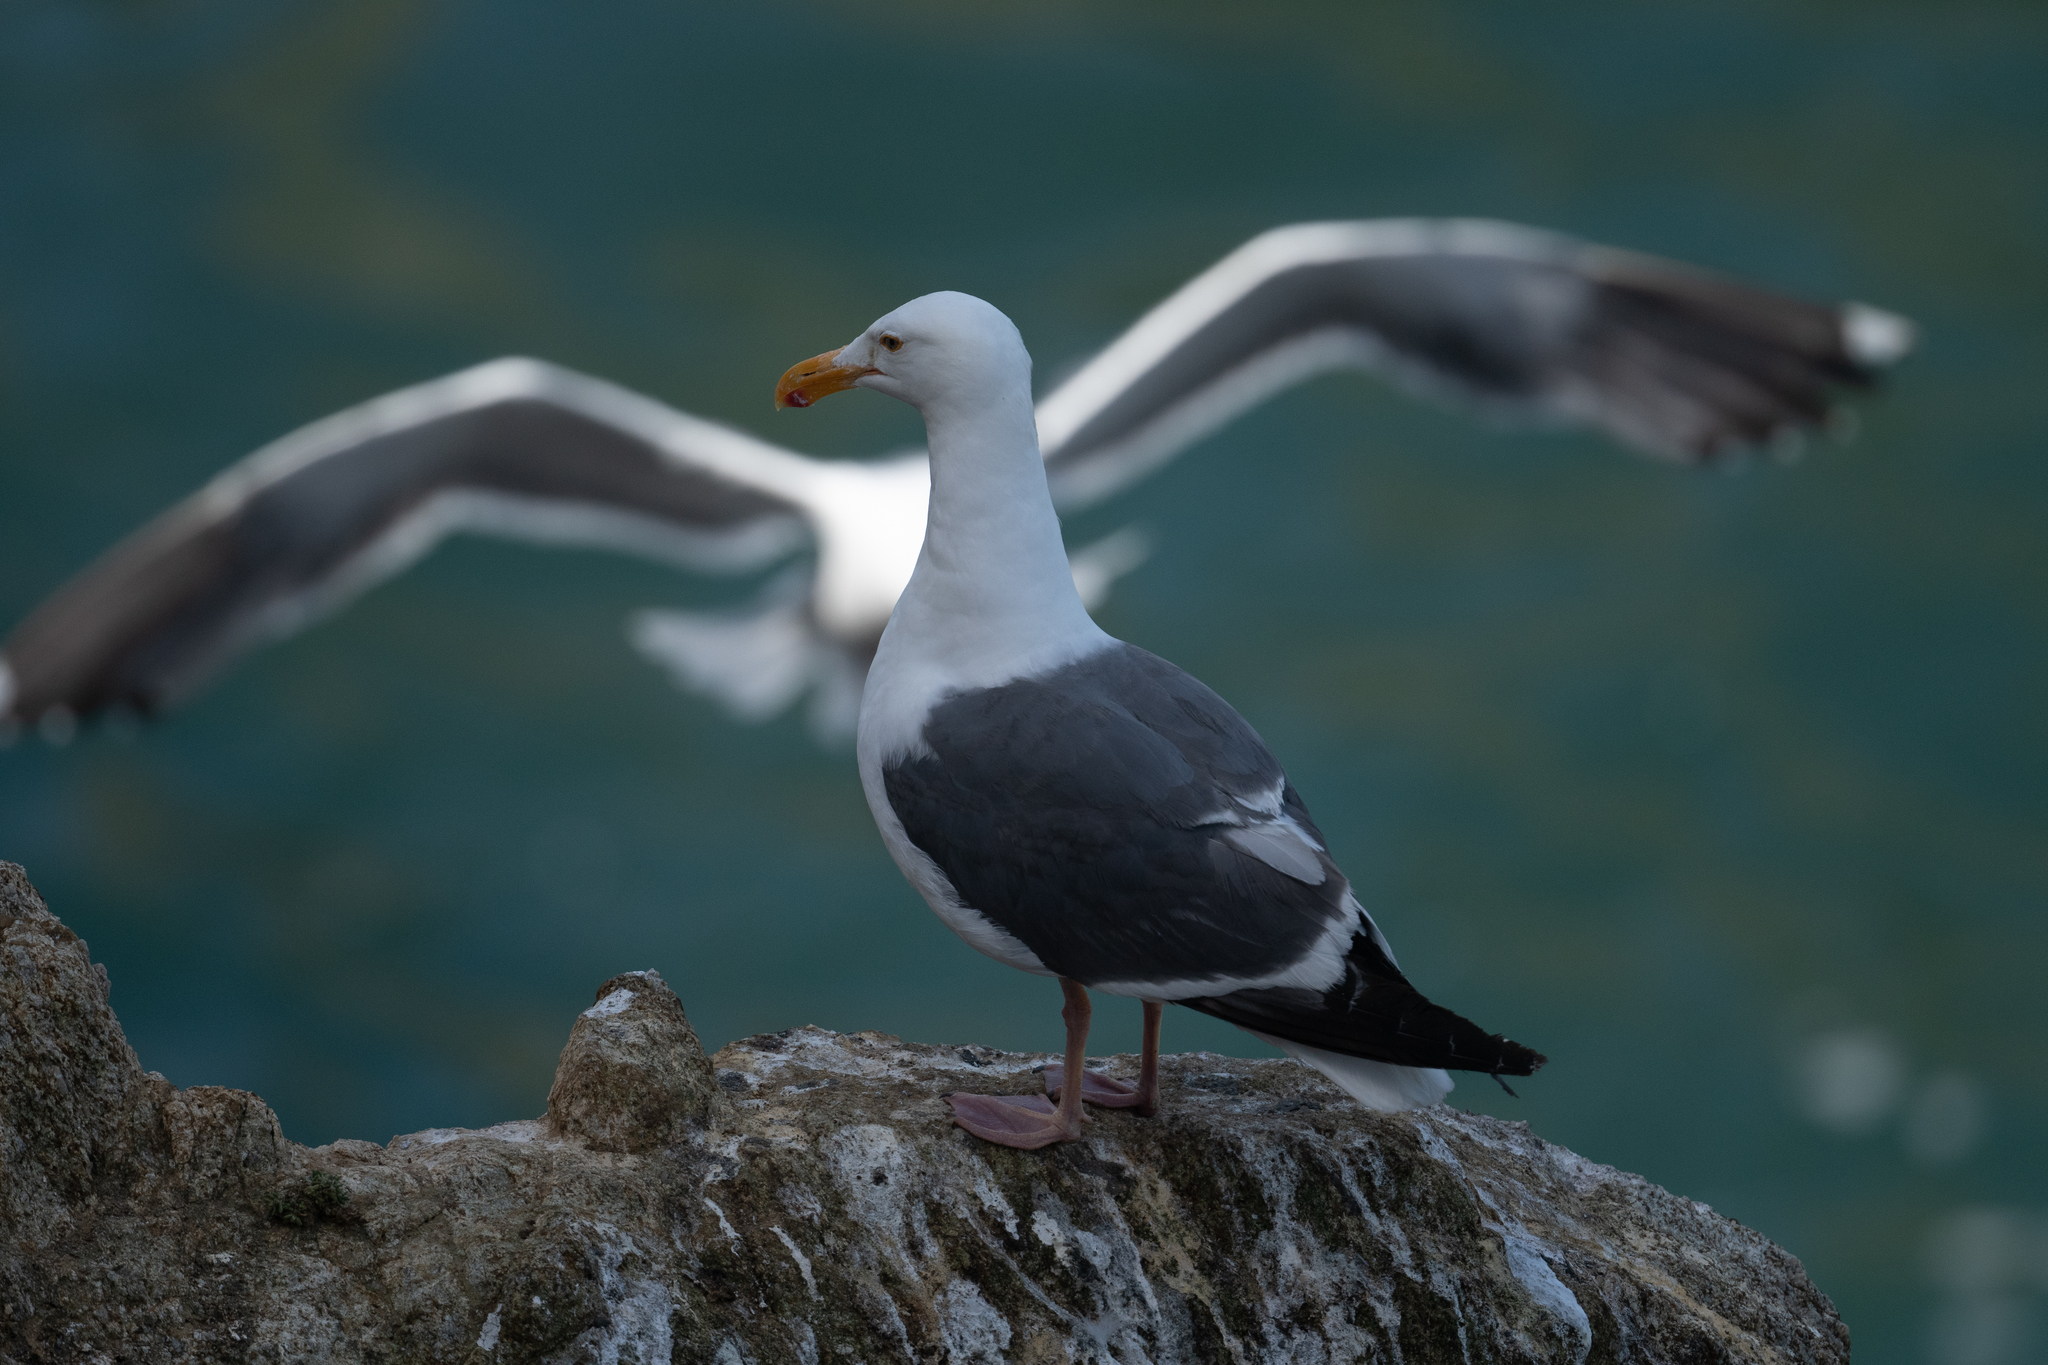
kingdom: Animalia
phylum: Chordata
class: Aves
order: Charadriiformes
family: Laridae
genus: Larus
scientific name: Larus occidentalis
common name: Western gull
